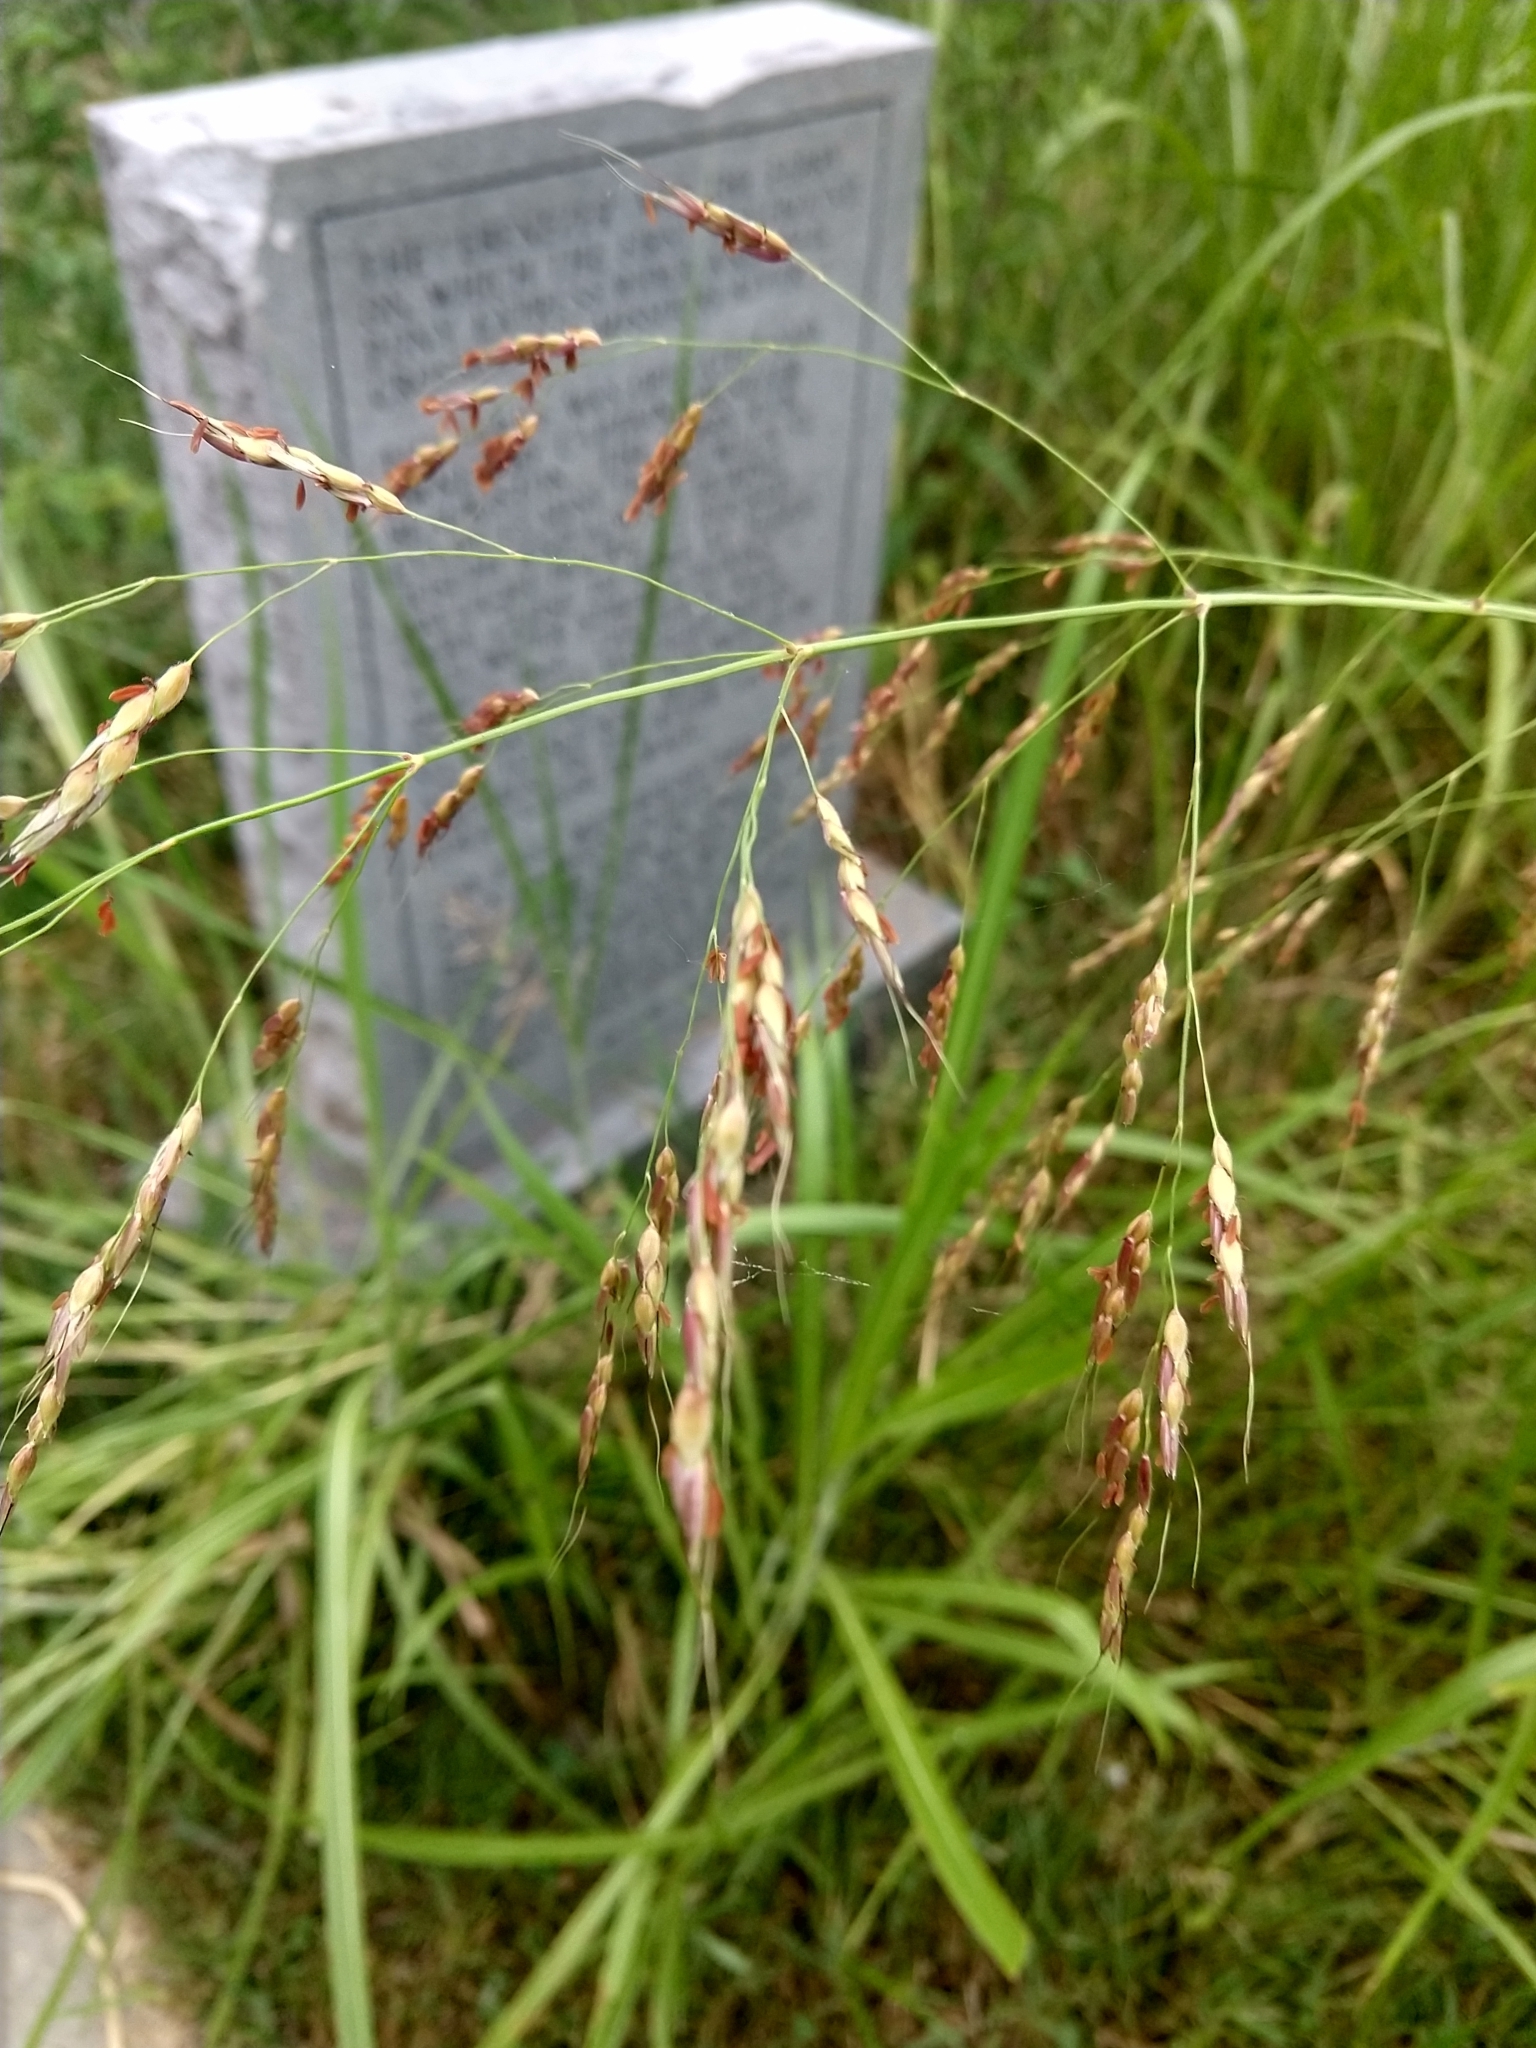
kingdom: Plantae
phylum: Tracheophyta
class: Liliopsida
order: Poales
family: Poaceae
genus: Sorghum
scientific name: Sorghum halepense
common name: Johnson-grass
